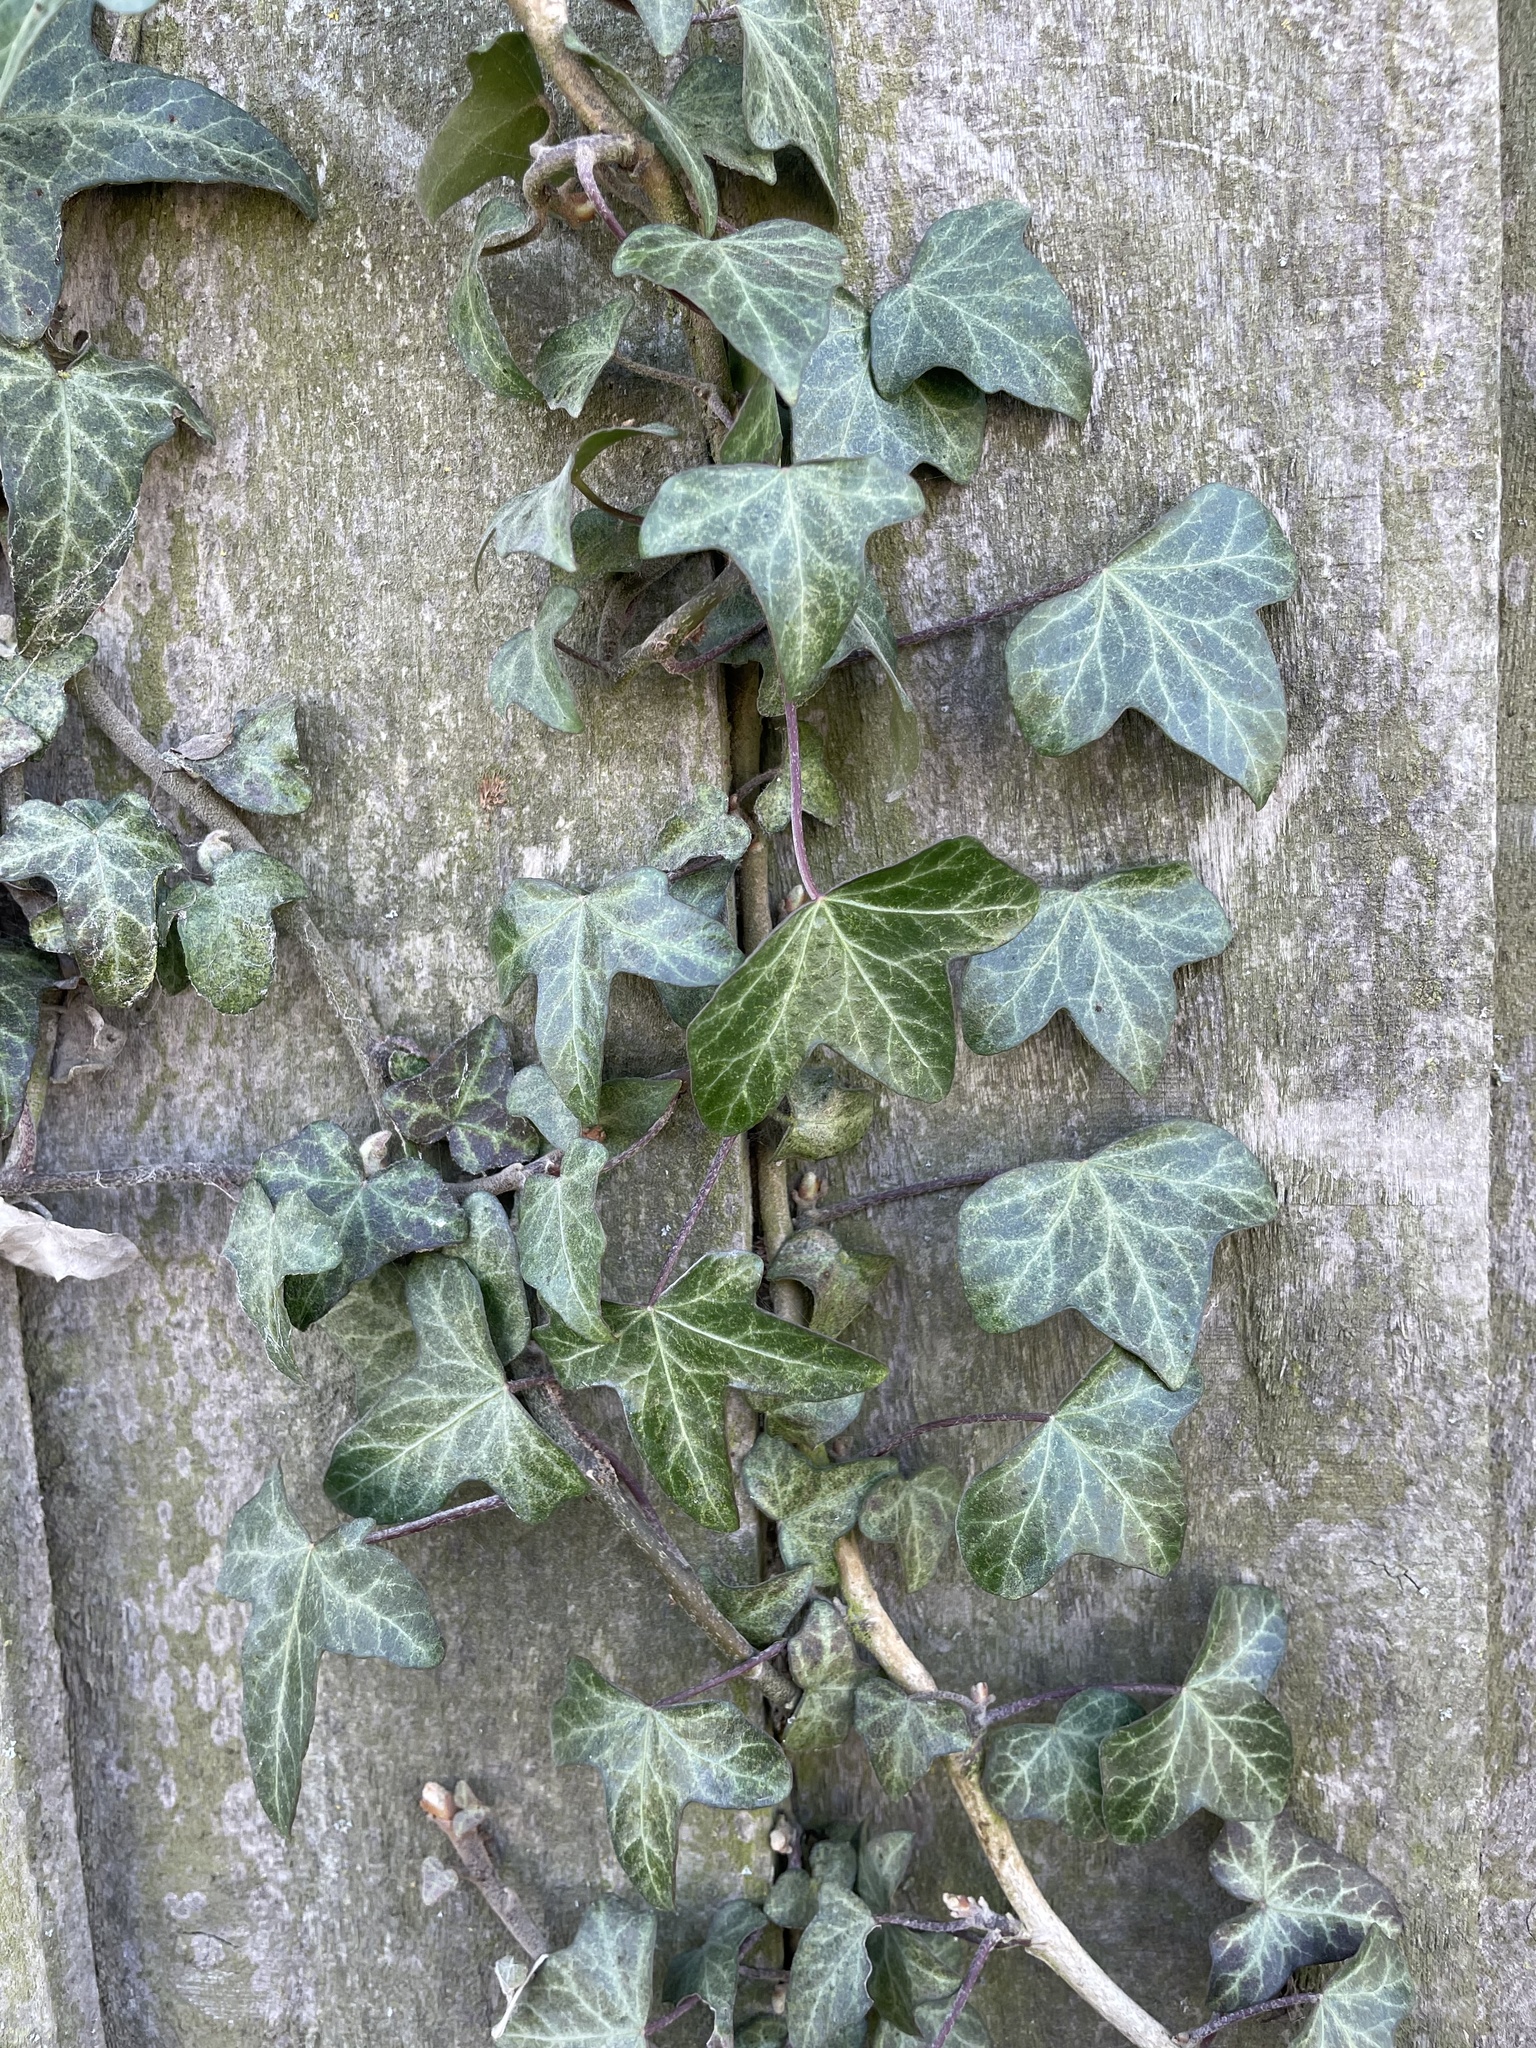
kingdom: Plantae
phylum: Tracheophyta
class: Magnoliopsida
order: Apiales
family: Araliaceae
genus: Hedera
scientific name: Hedera helix
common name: Ivy
